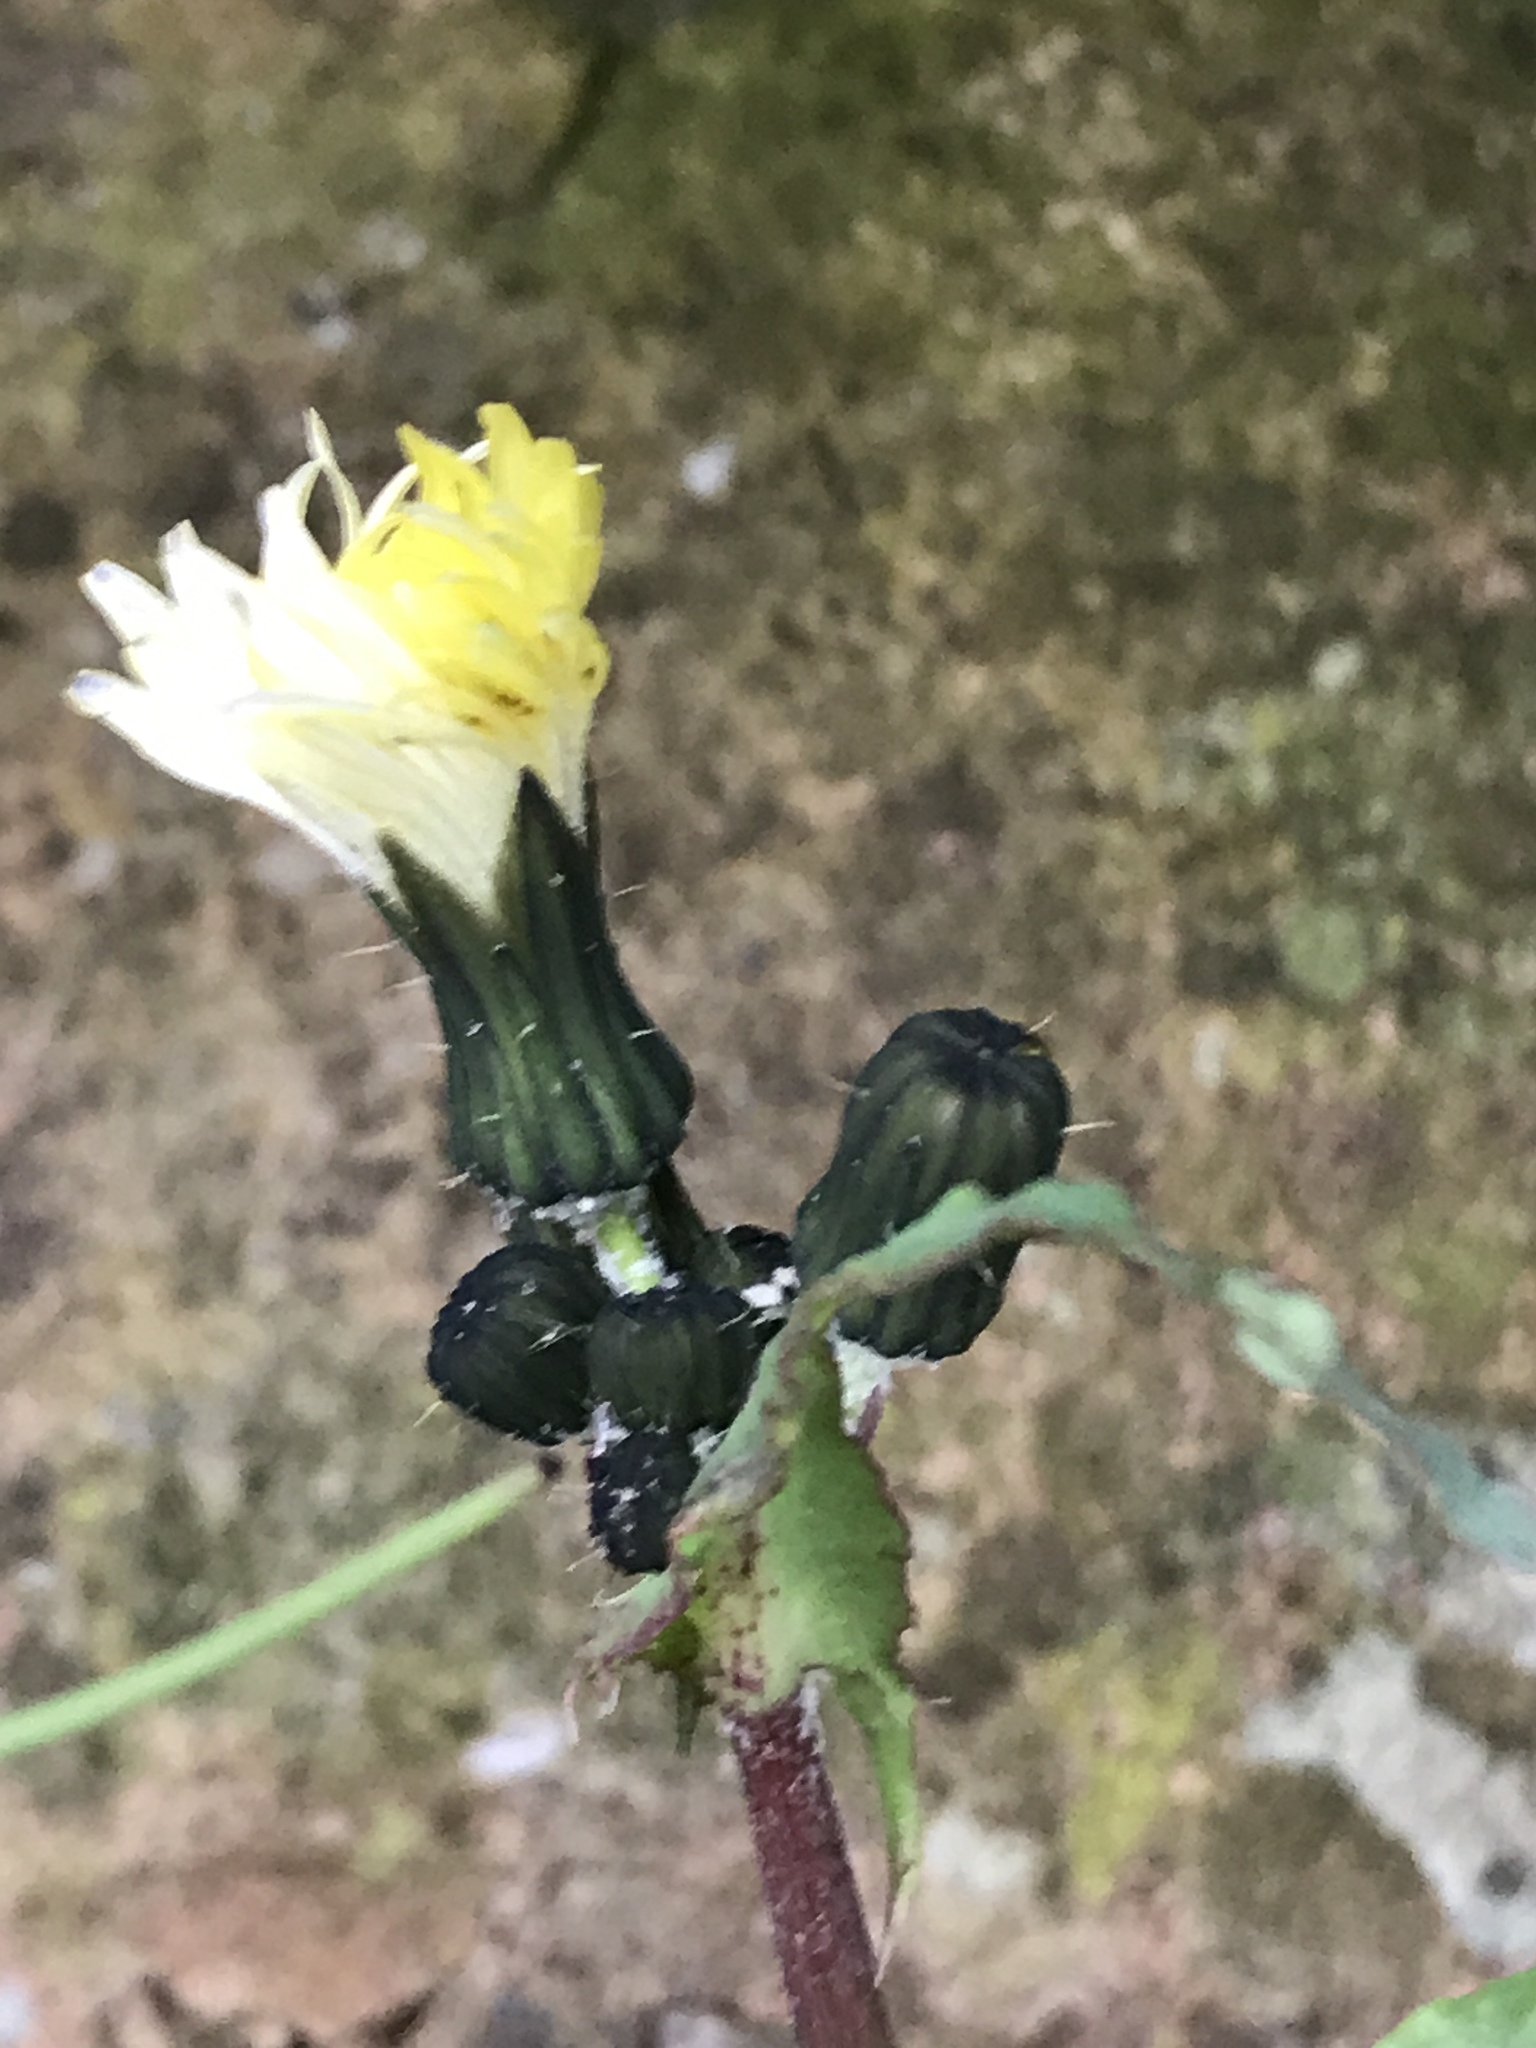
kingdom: Plantae
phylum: Tracheophyta
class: Magnoliopsida
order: Asterales
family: Asteraceae
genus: Sonchus
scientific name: Sonchus oleraceus
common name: Common sowthistle
